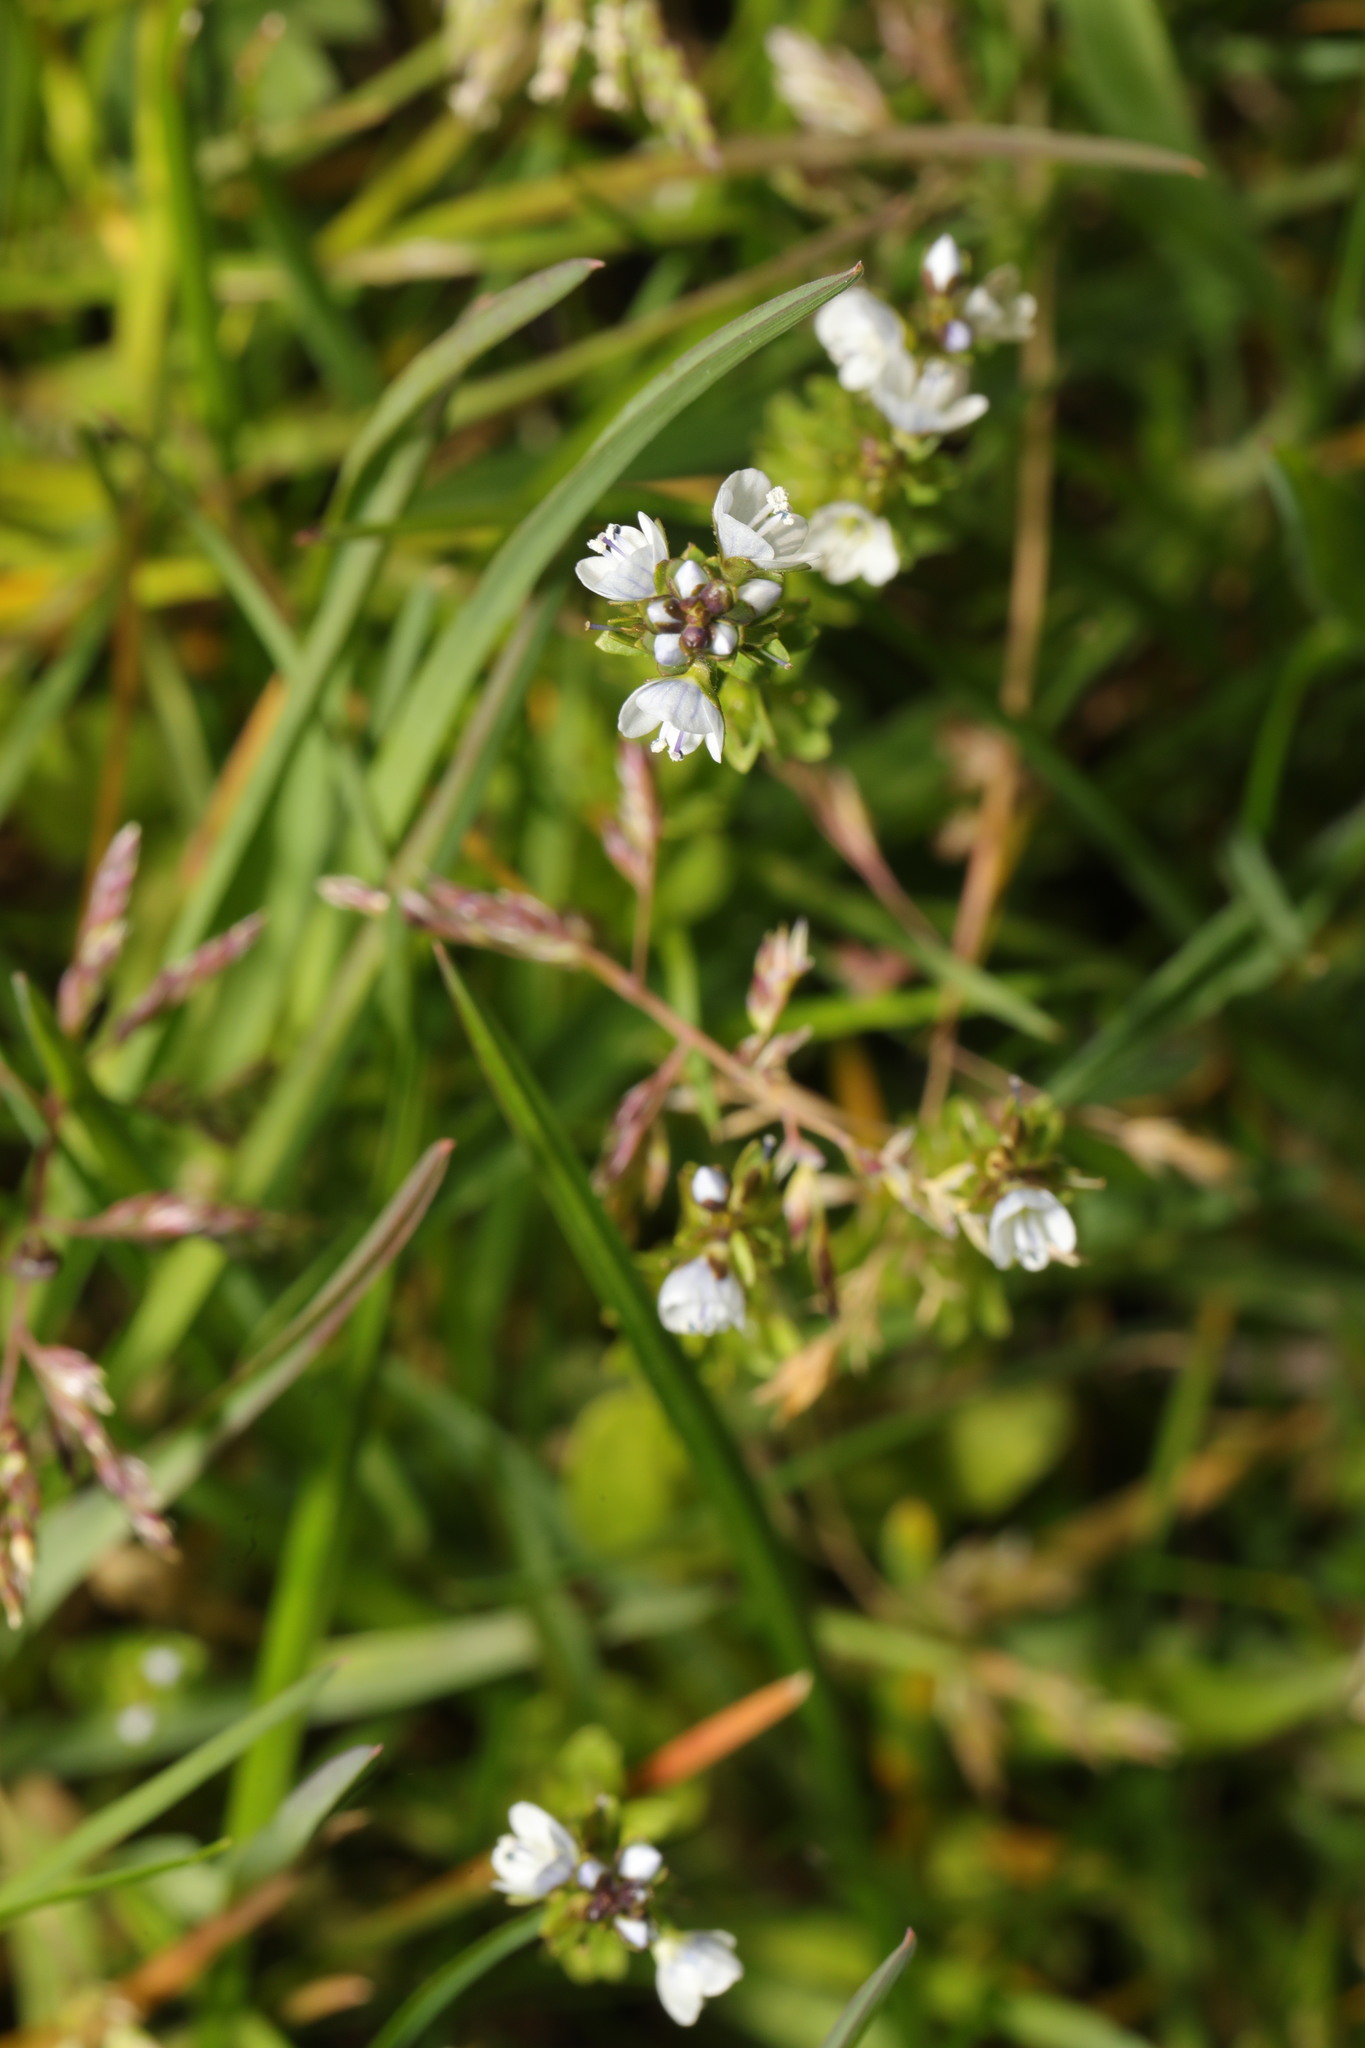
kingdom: Plantae
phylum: Tracheophyta
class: Magnoliopsida
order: Lamiales
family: Plantaginaceae
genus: Veronica
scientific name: Veronica serpyllifolia
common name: Thyme-leaved speedwell
